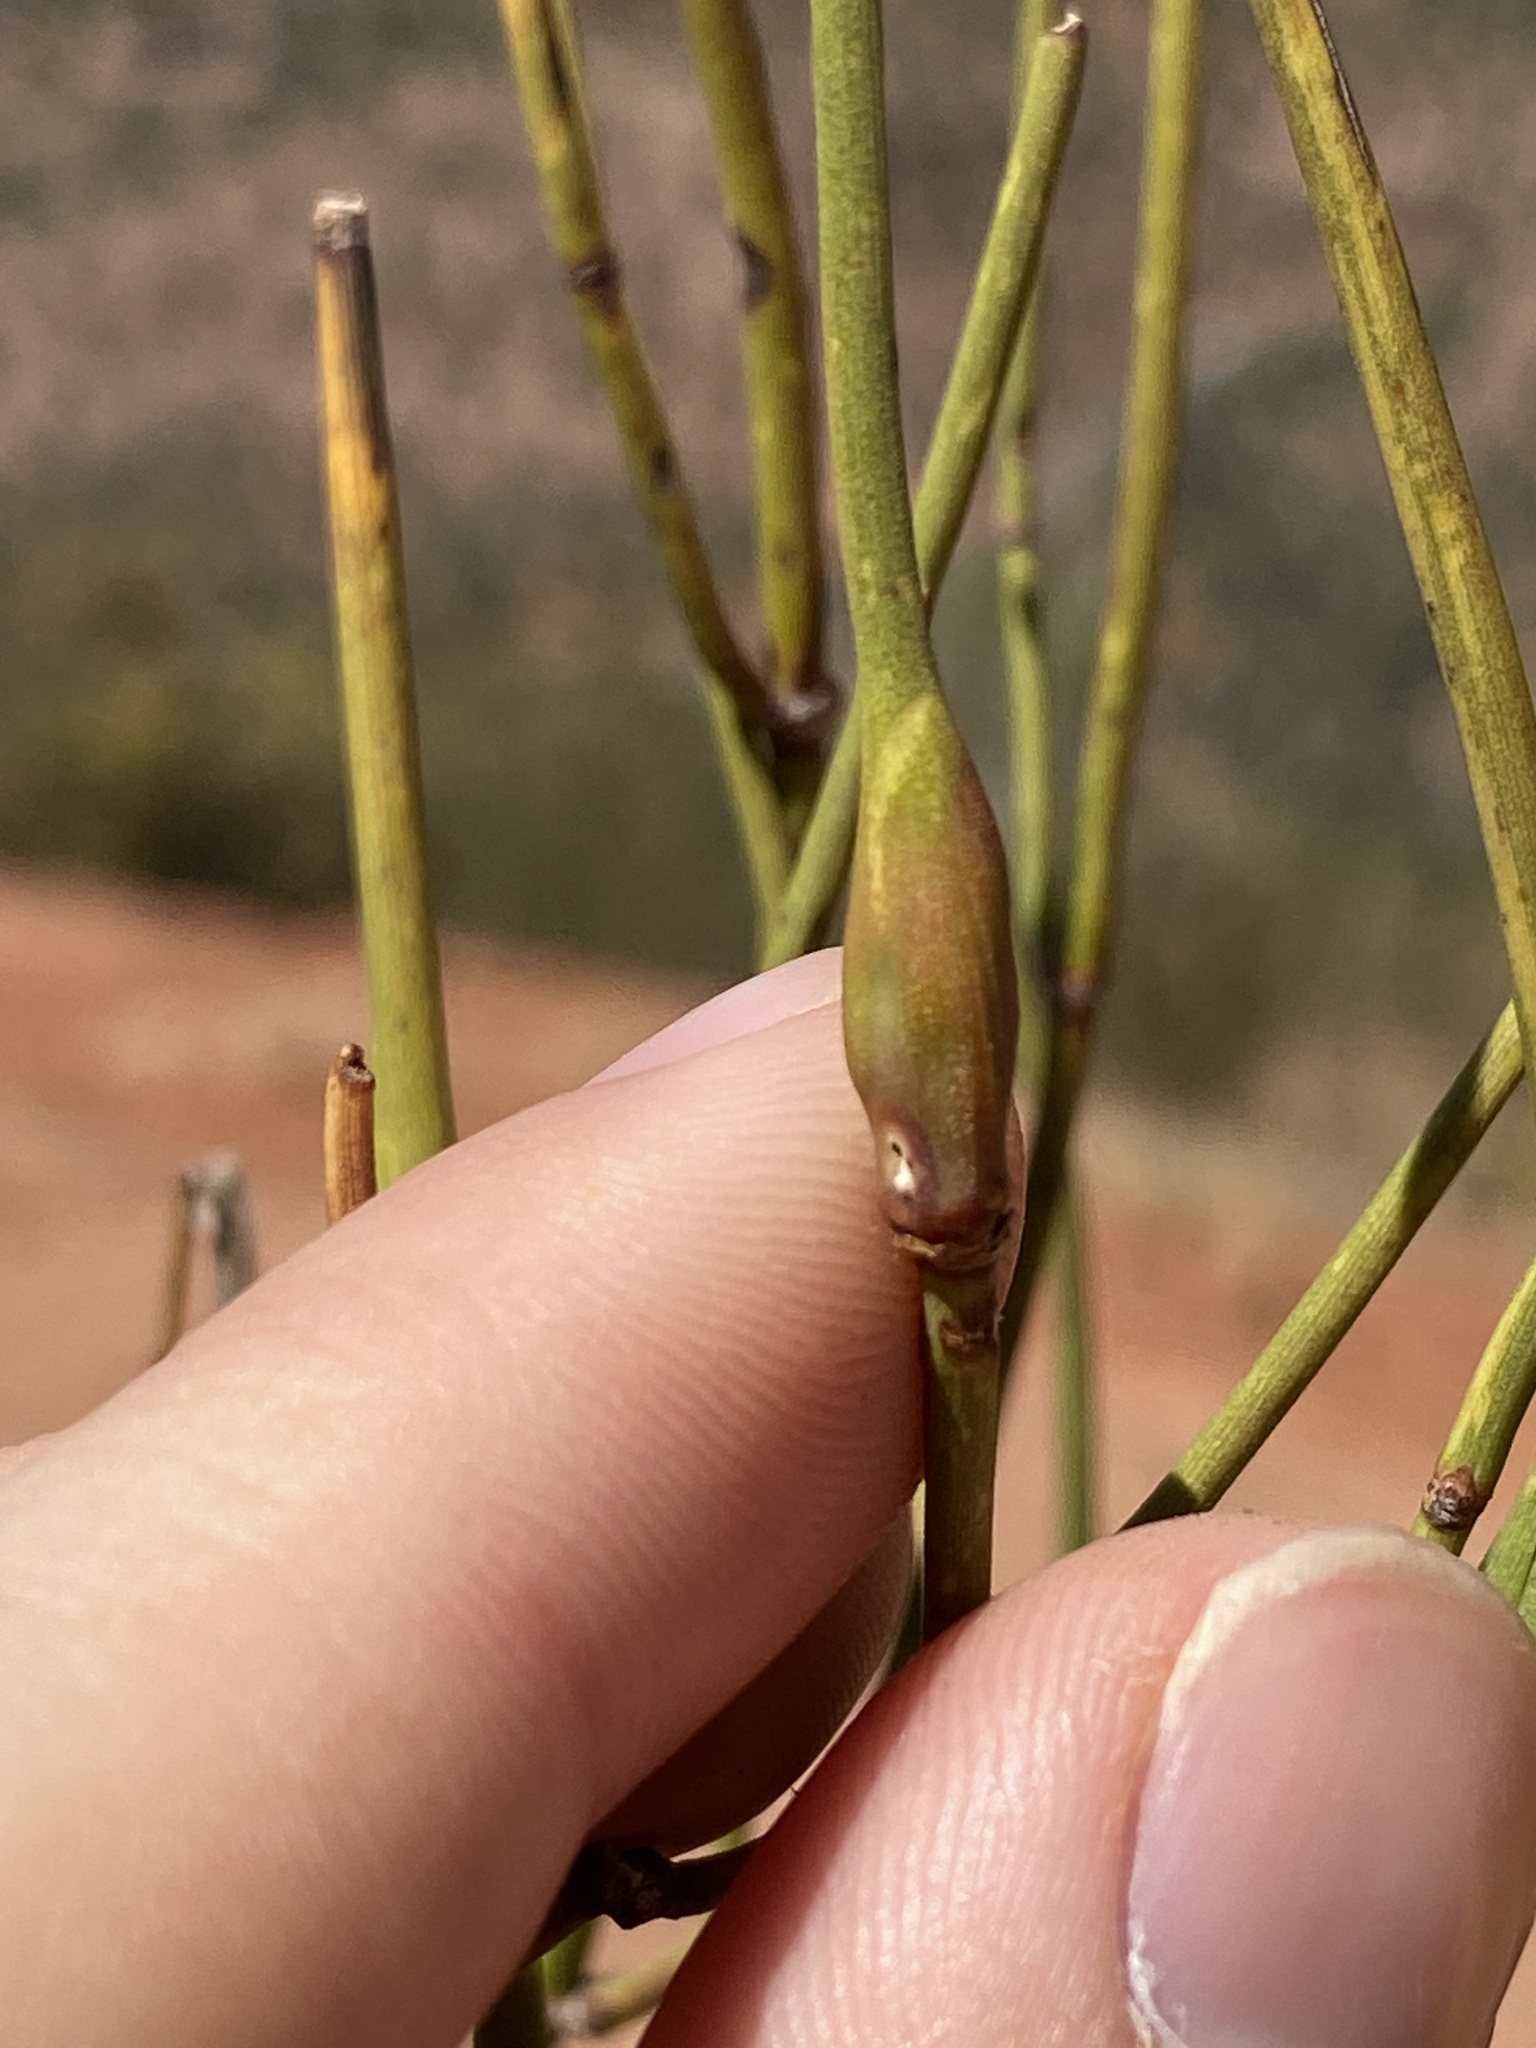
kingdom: Animalia
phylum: Arthropoda
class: Insecta
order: Diptera
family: Cecidomyiidae
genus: Lasioptera
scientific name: Lasioptera ephedrae
